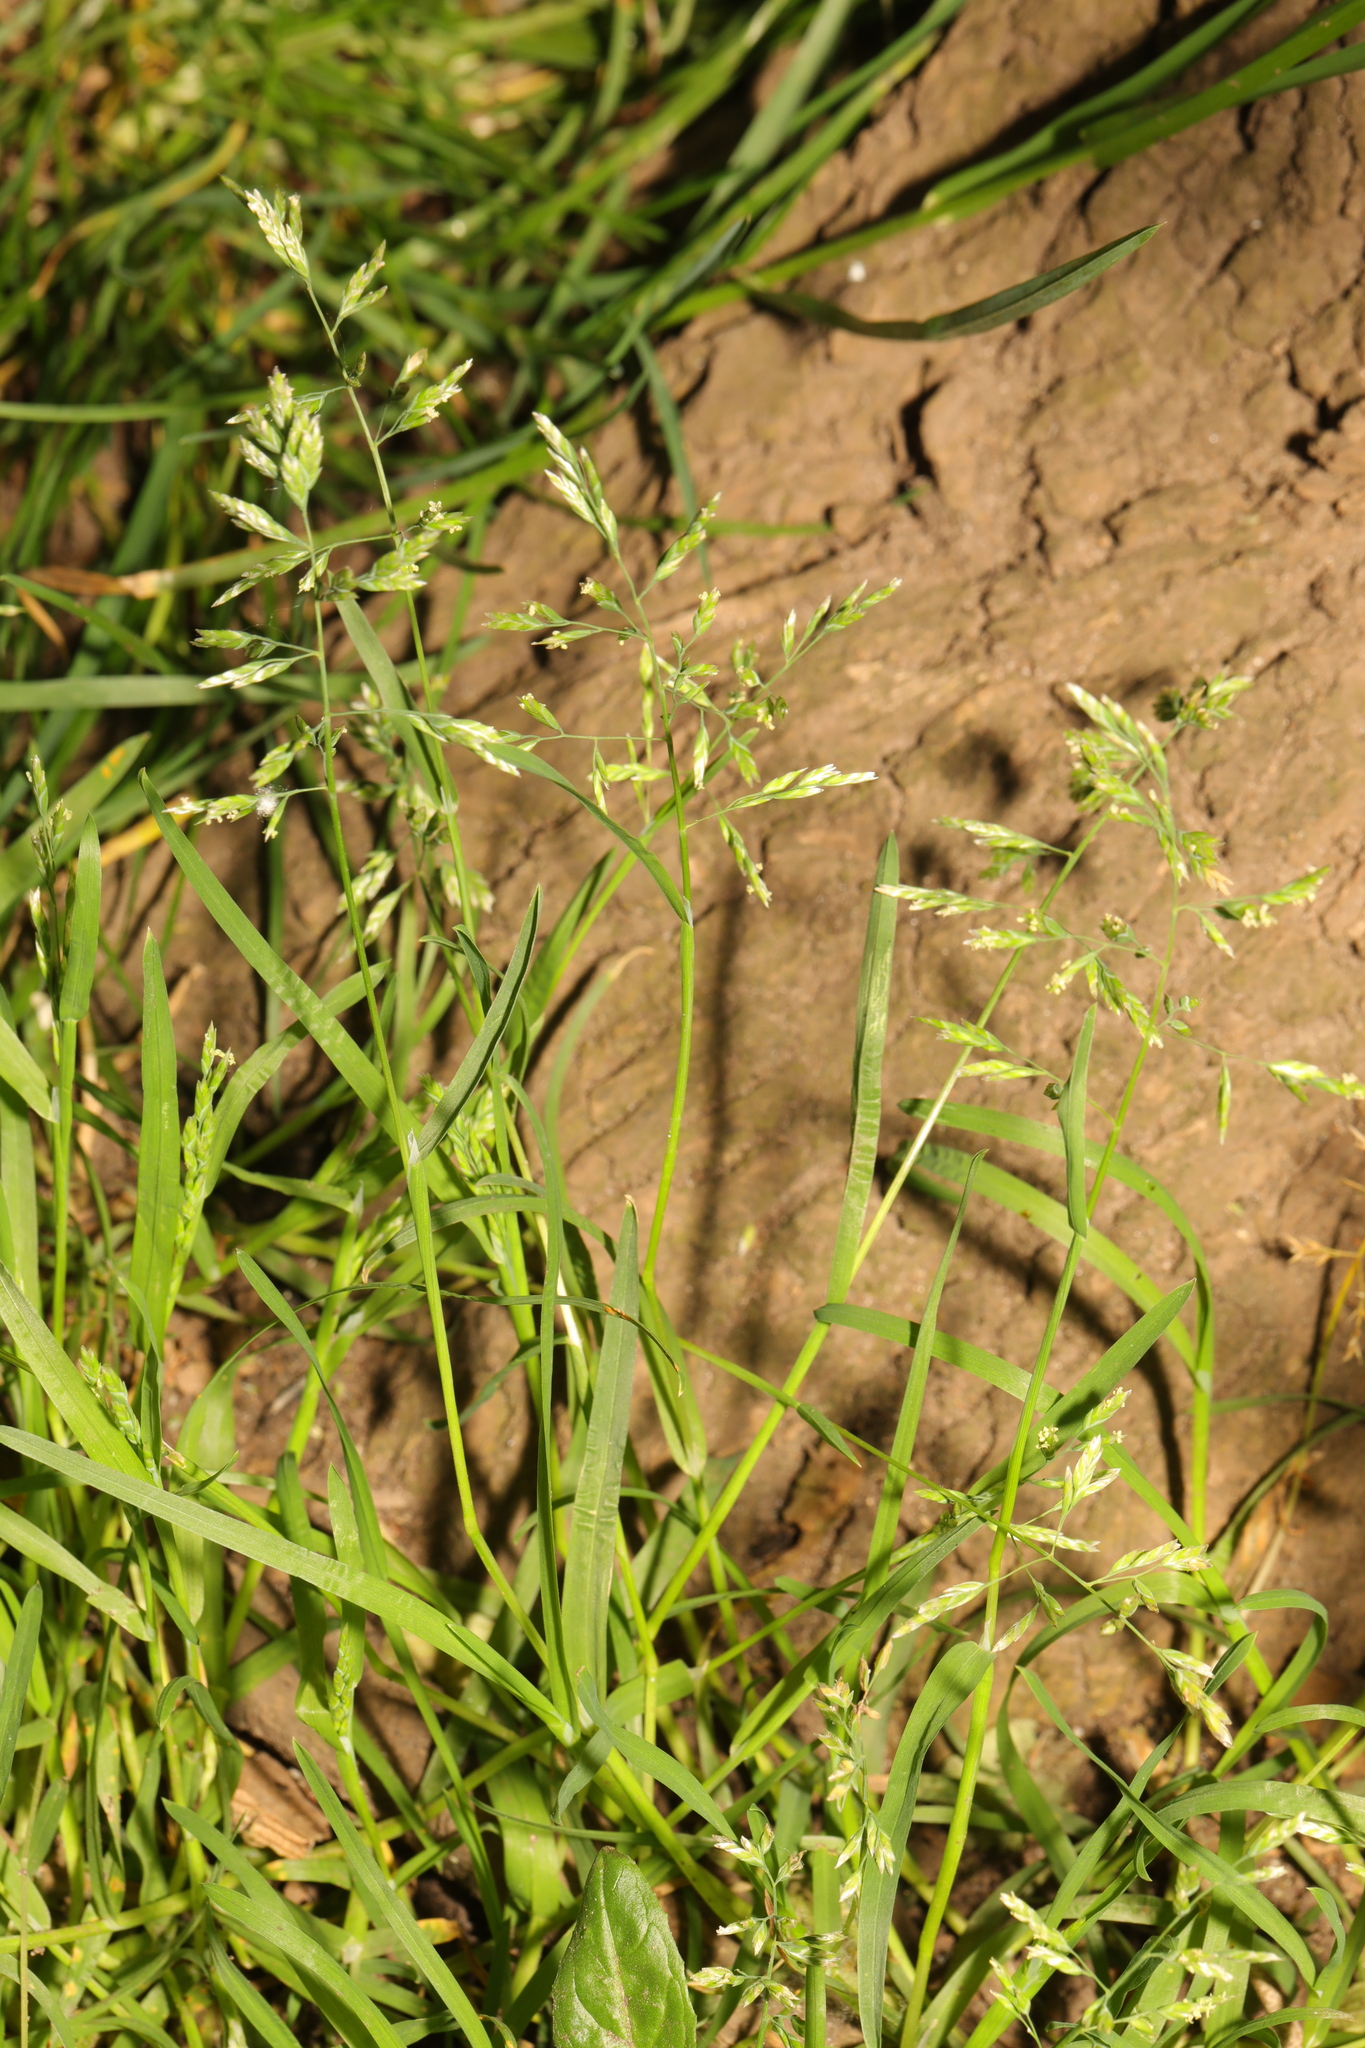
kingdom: Plantae
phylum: Tracheophyta
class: Liliopsida
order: Poales
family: Poaceae
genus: Poa
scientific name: Poa annua
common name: Annual bluegrass
